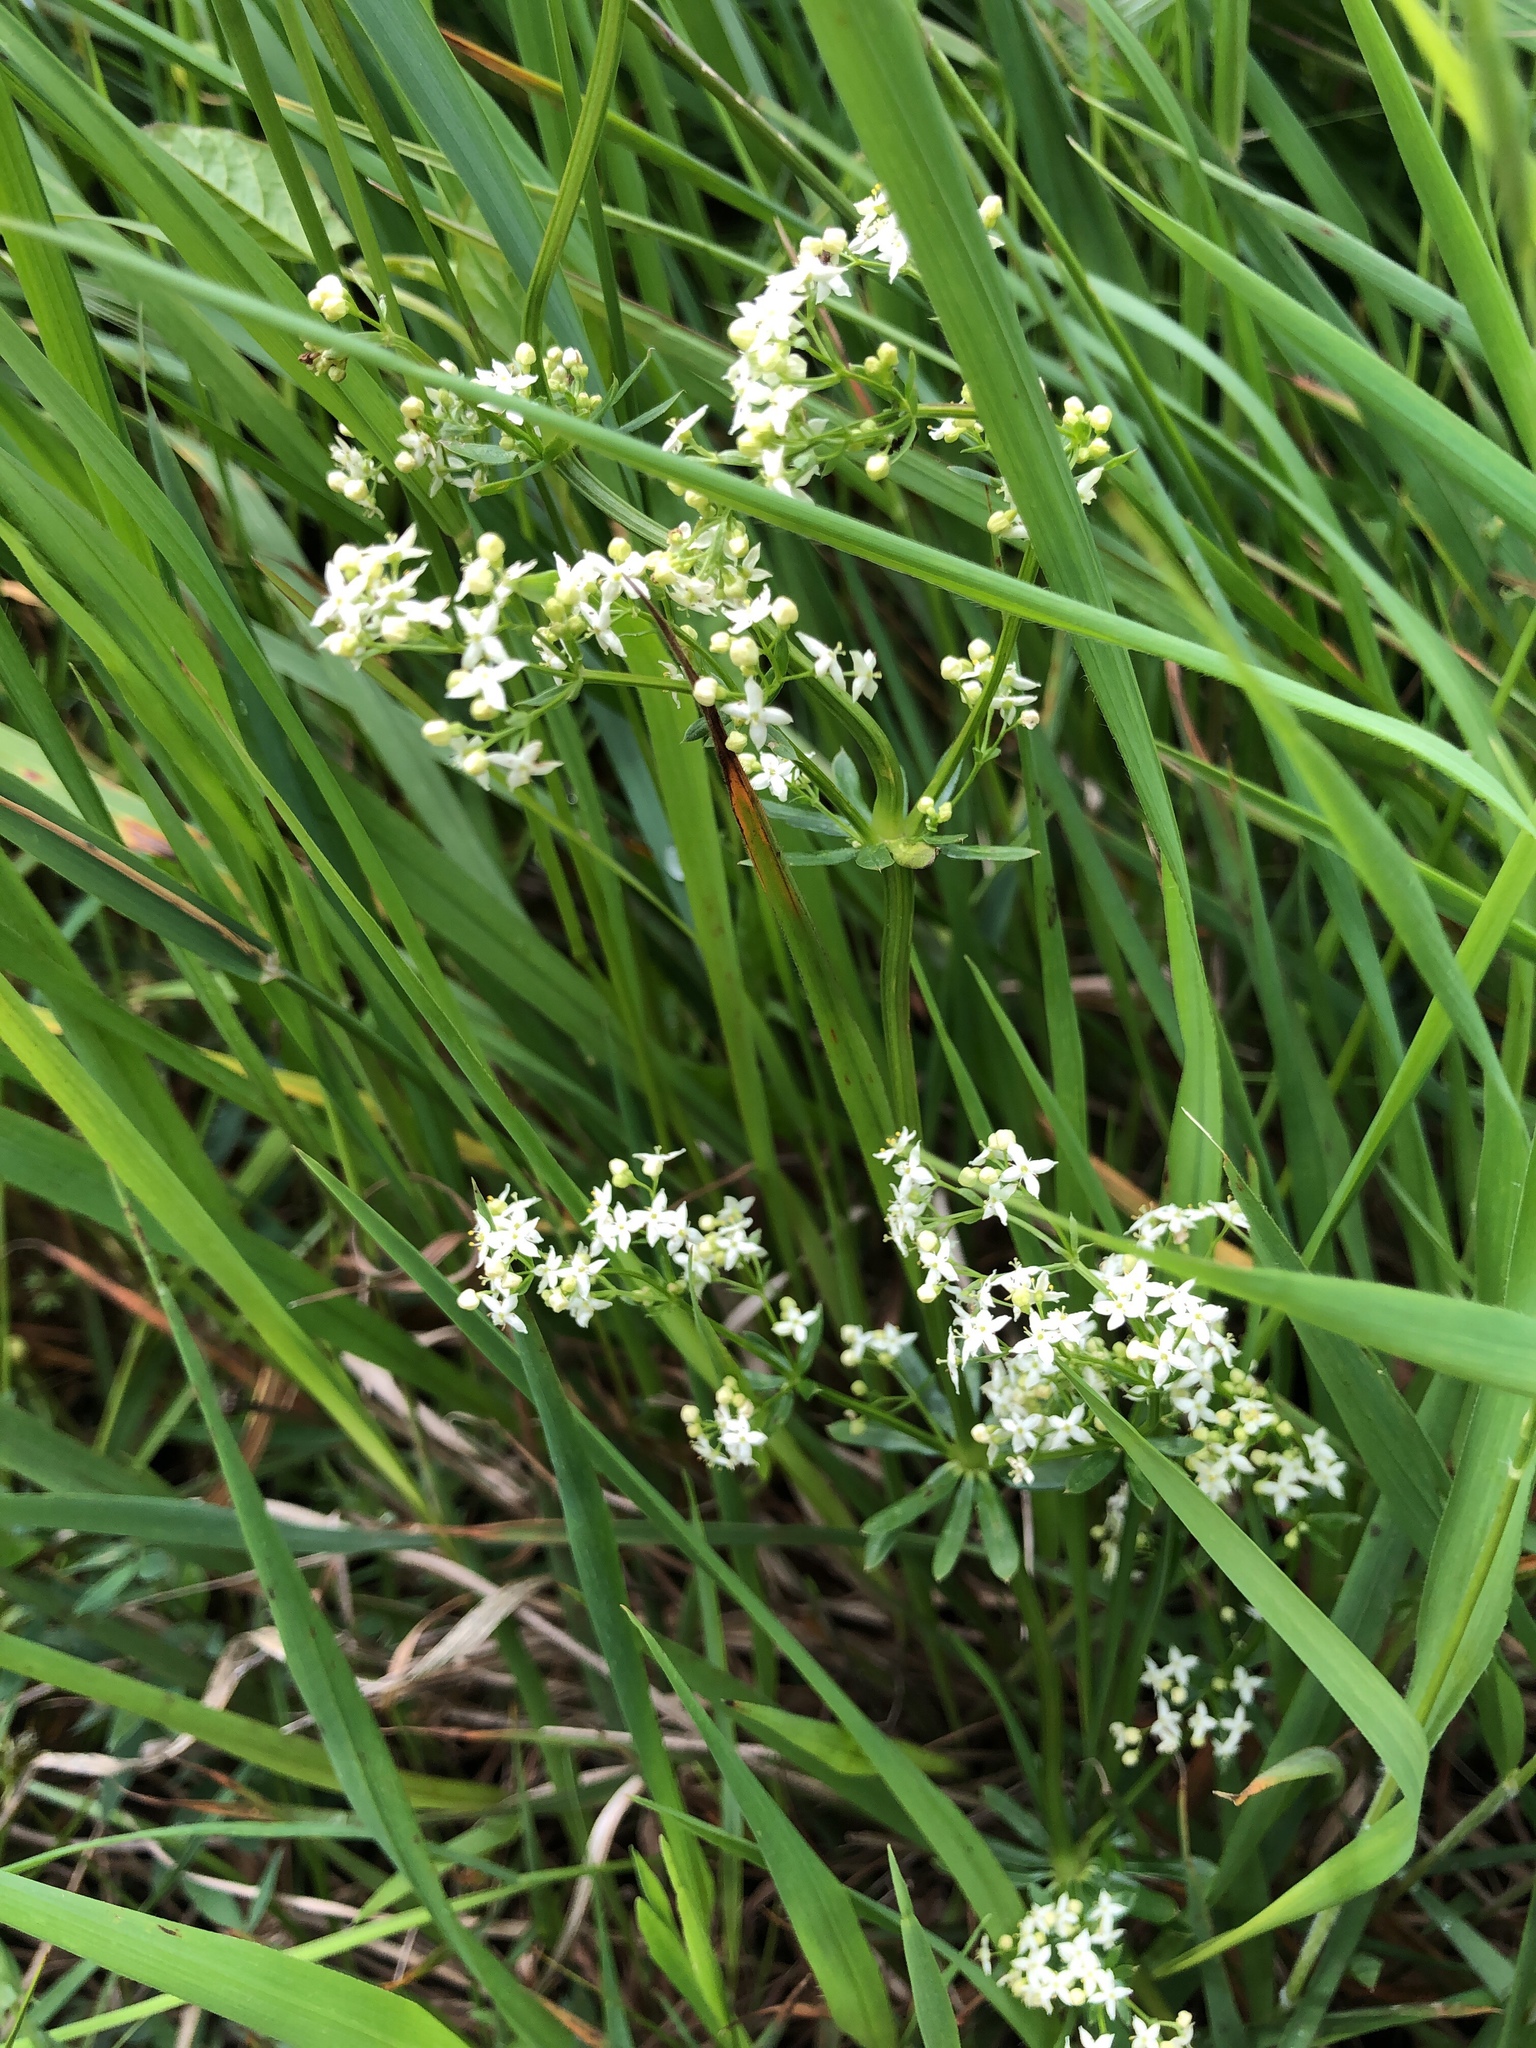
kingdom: Plantae
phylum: Tracheophyta
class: Magnoliopsida
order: Gentianales
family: Rubiaceae
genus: Galium
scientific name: Galium album
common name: White bedstraw
